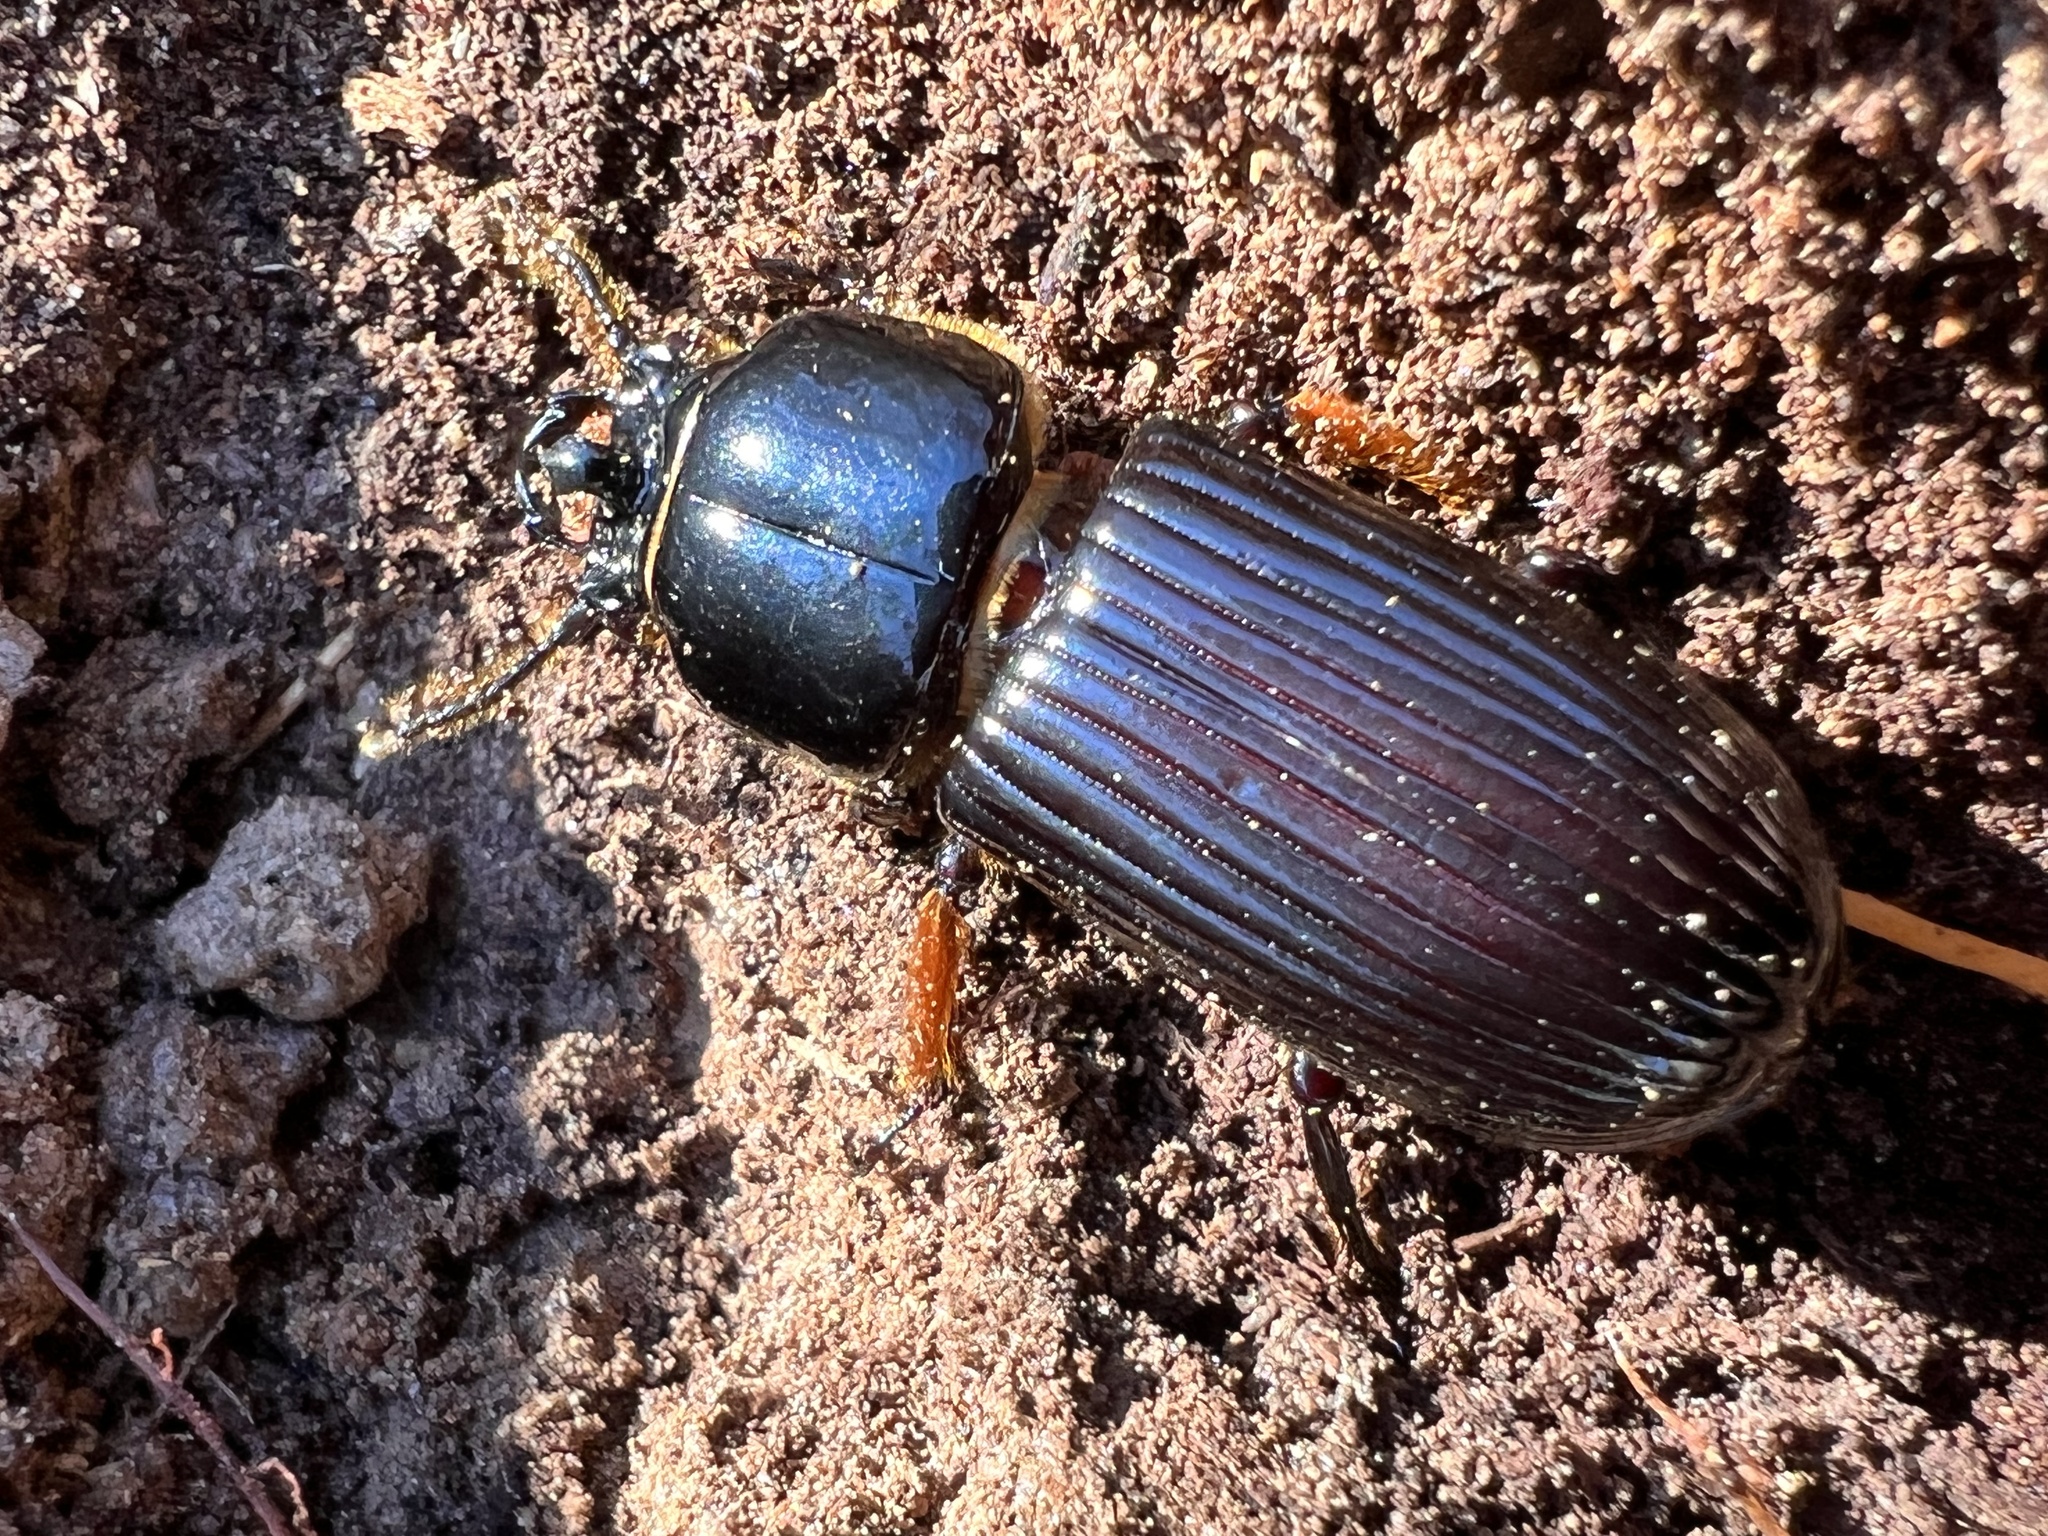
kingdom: Animalia
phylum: Arthropoda
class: Insecta
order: Coleoptera
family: Passalidae
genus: Odontotaenius
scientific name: Odontotaenius disjunctus
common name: Patent leather beetle
